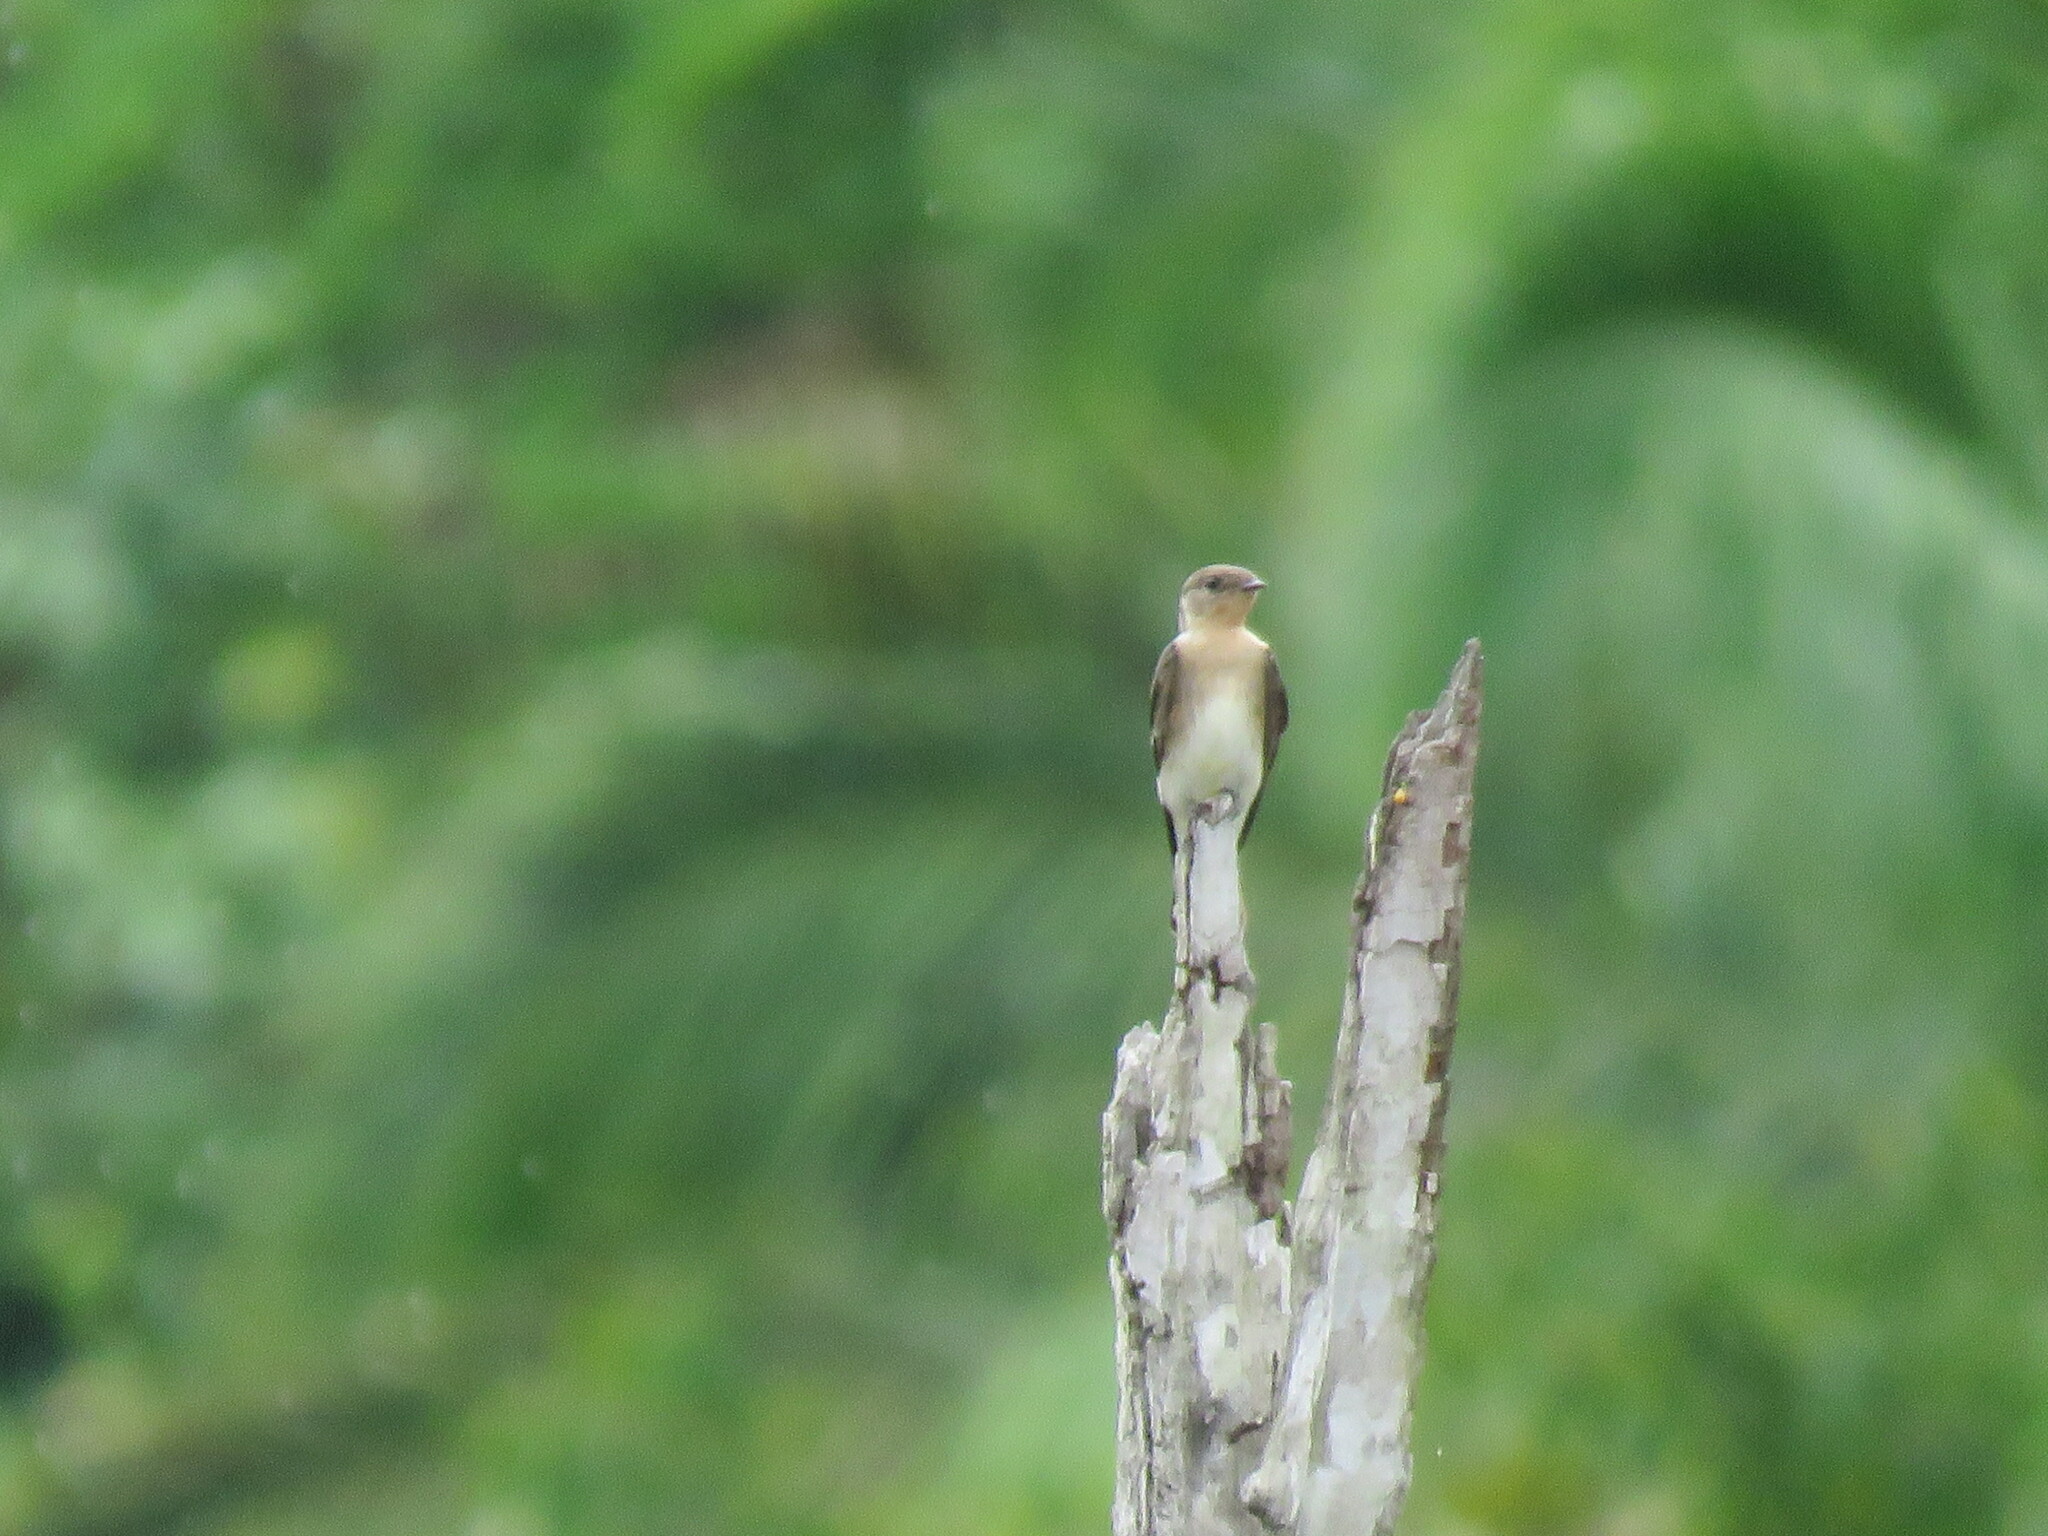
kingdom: Animalia
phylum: Chordata
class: Aves
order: Passeriformes
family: Hirundinidae
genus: Stelgidopteryx
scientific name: Stelgidopteryx ruficollis
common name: Southern rough-winged swallow
